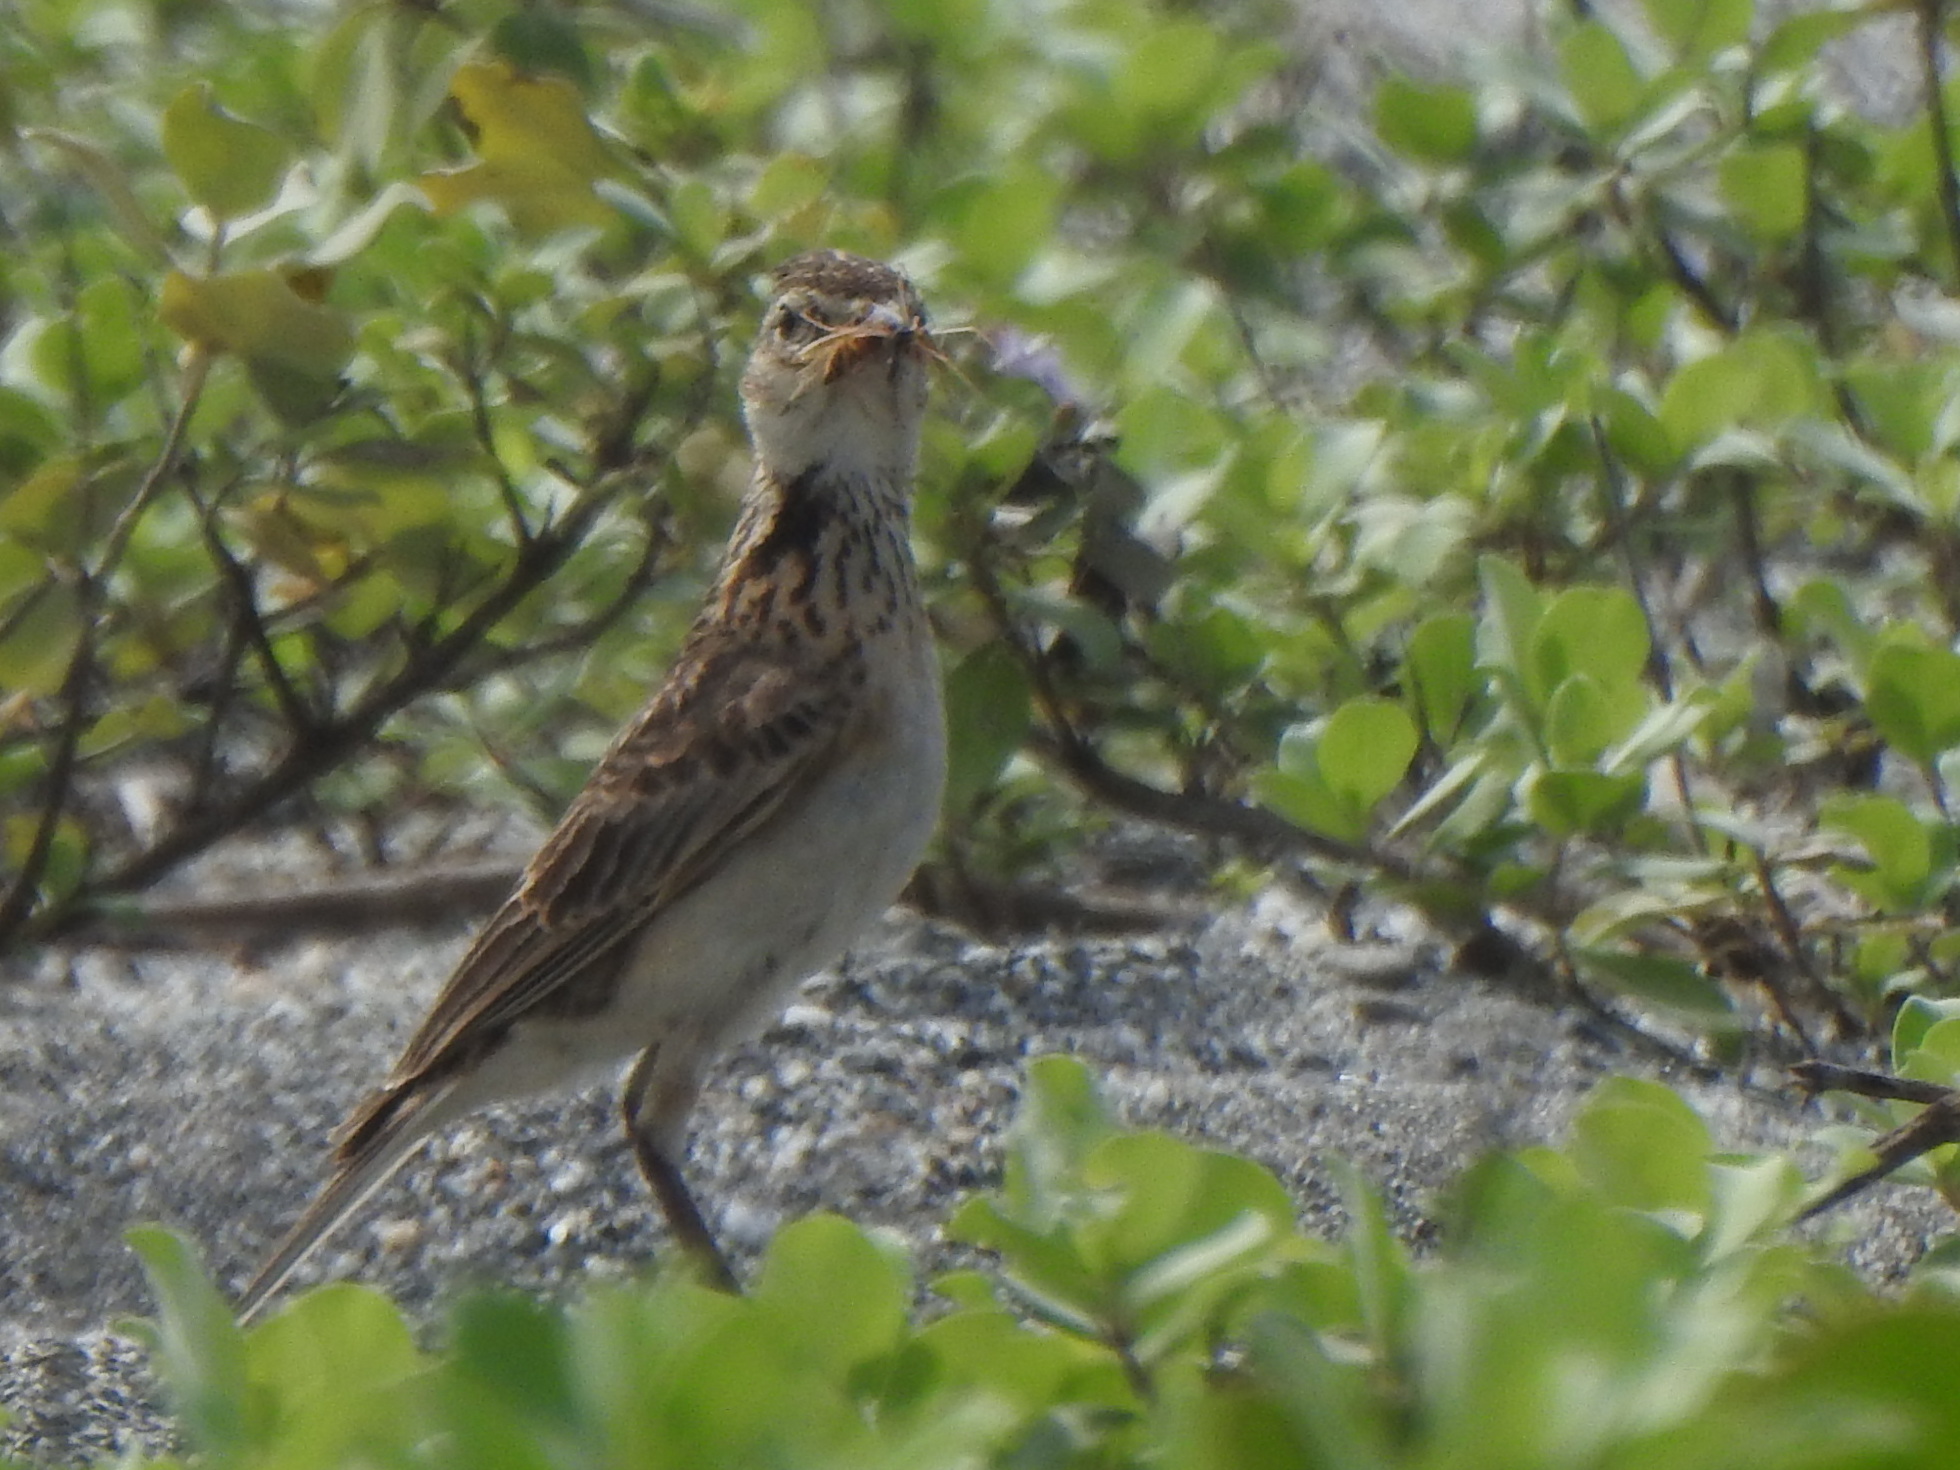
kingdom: Animalia
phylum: Chordata
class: Aves
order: Passeriformes
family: Alaudidae
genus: Alauda
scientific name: Alauda gulgula
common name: Oriental skylark
